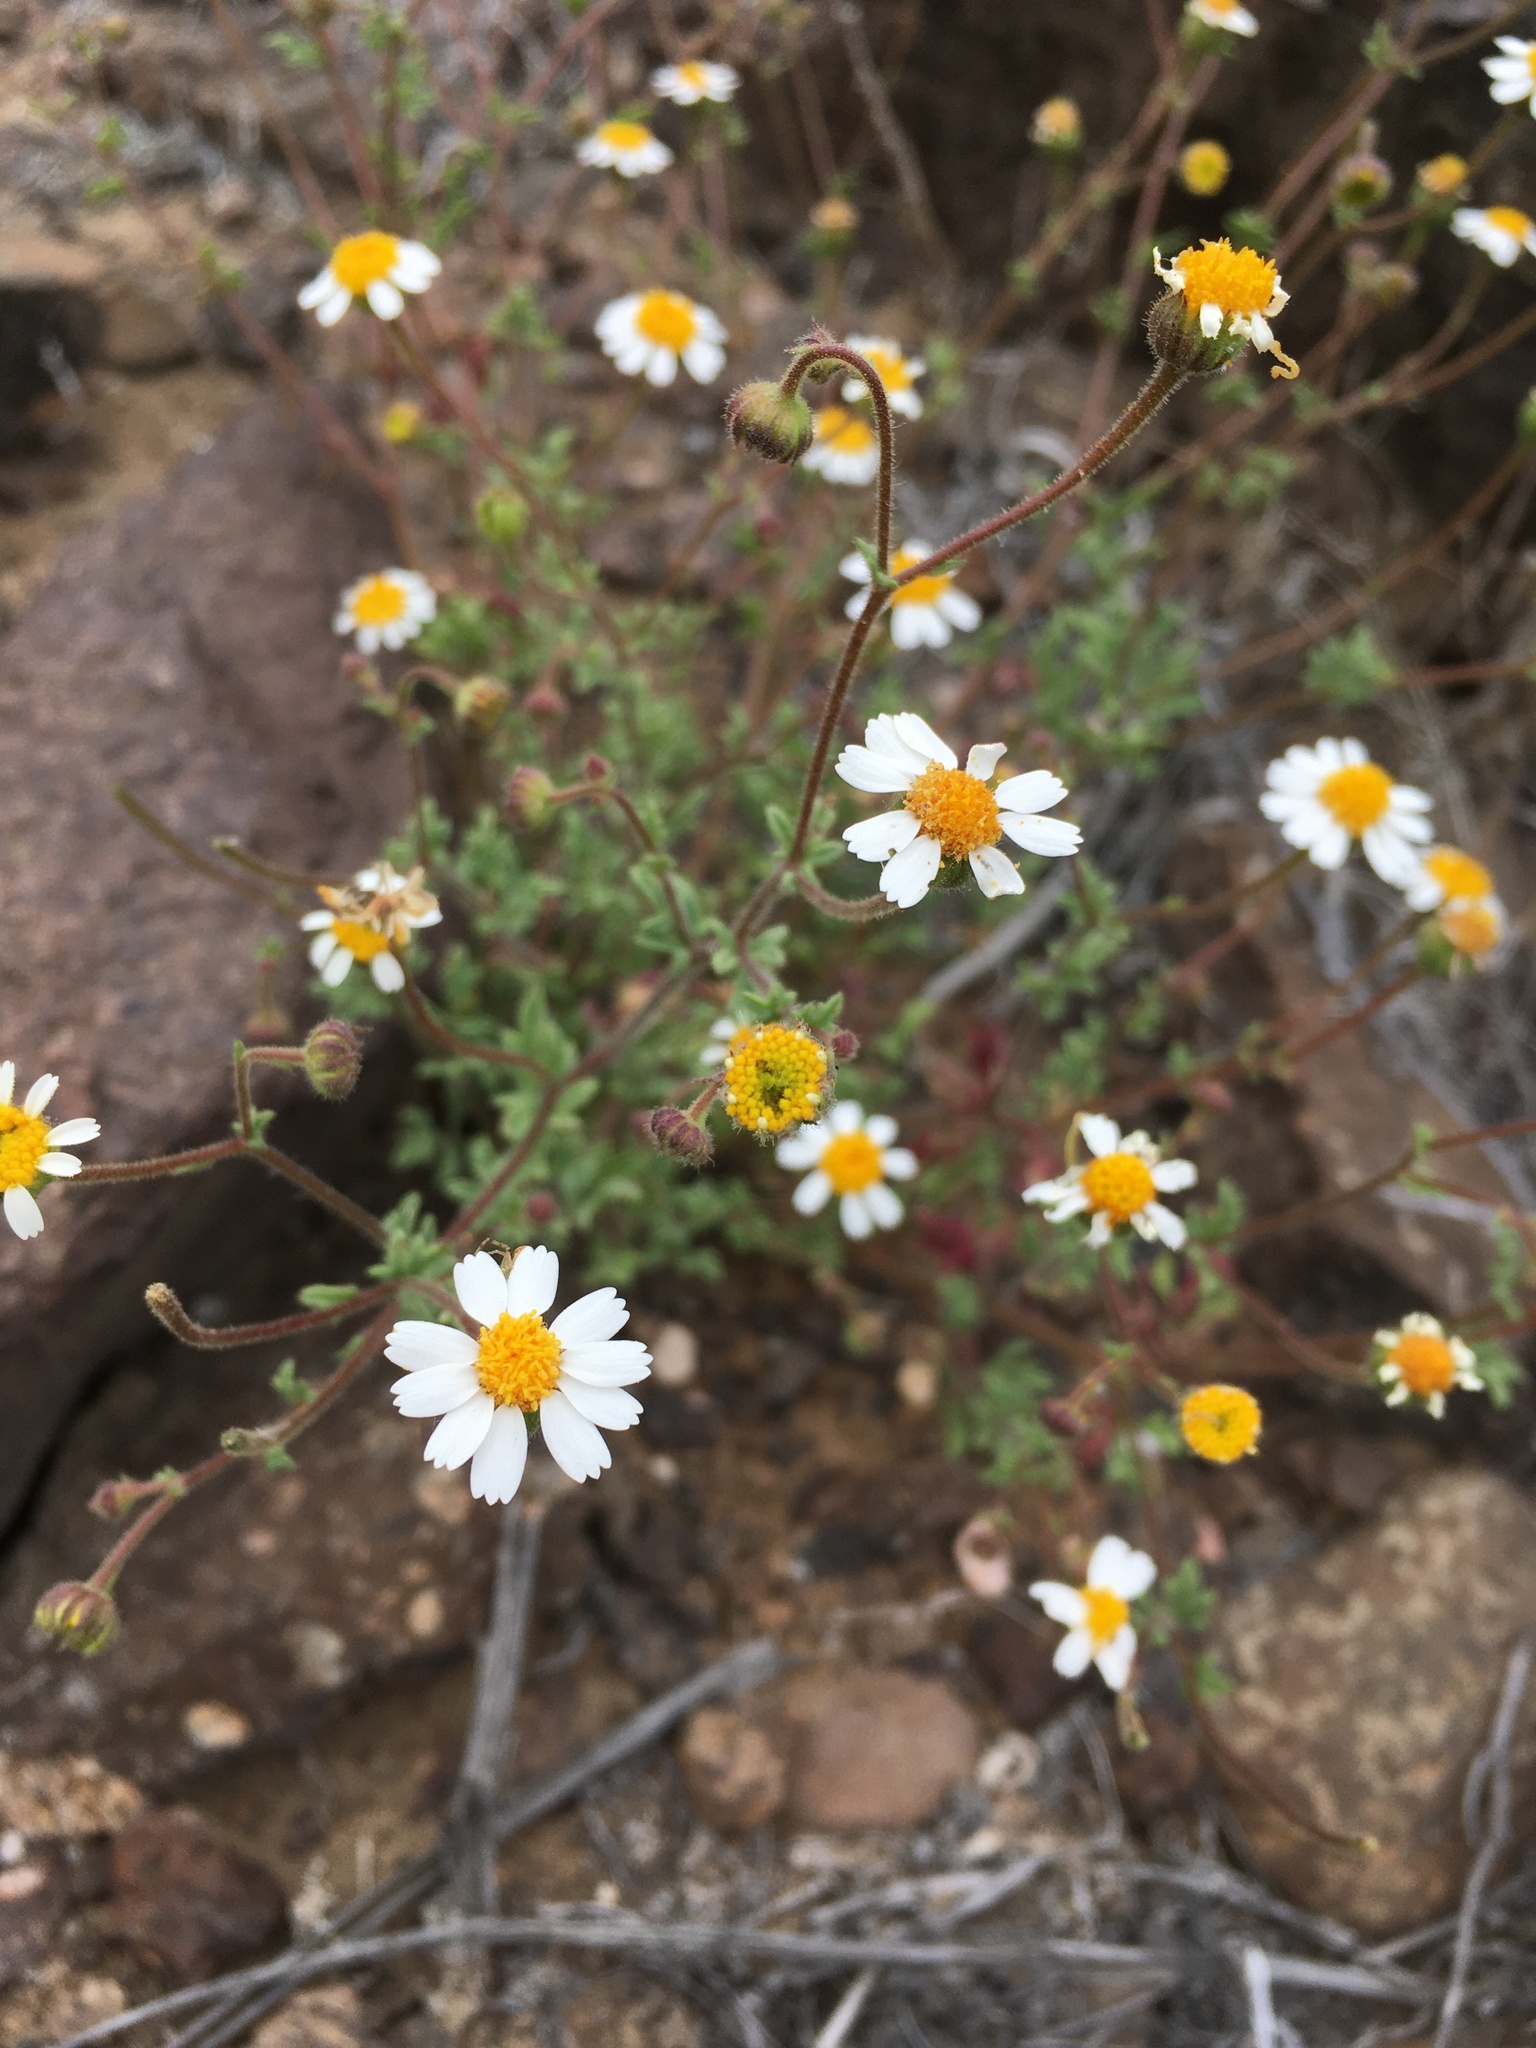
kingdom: Plantae
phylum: Tracheophyta
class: Magnoliopsida
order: Asterales
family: Asteraceae
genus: Laphamia
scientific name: Laphamia emoryi
